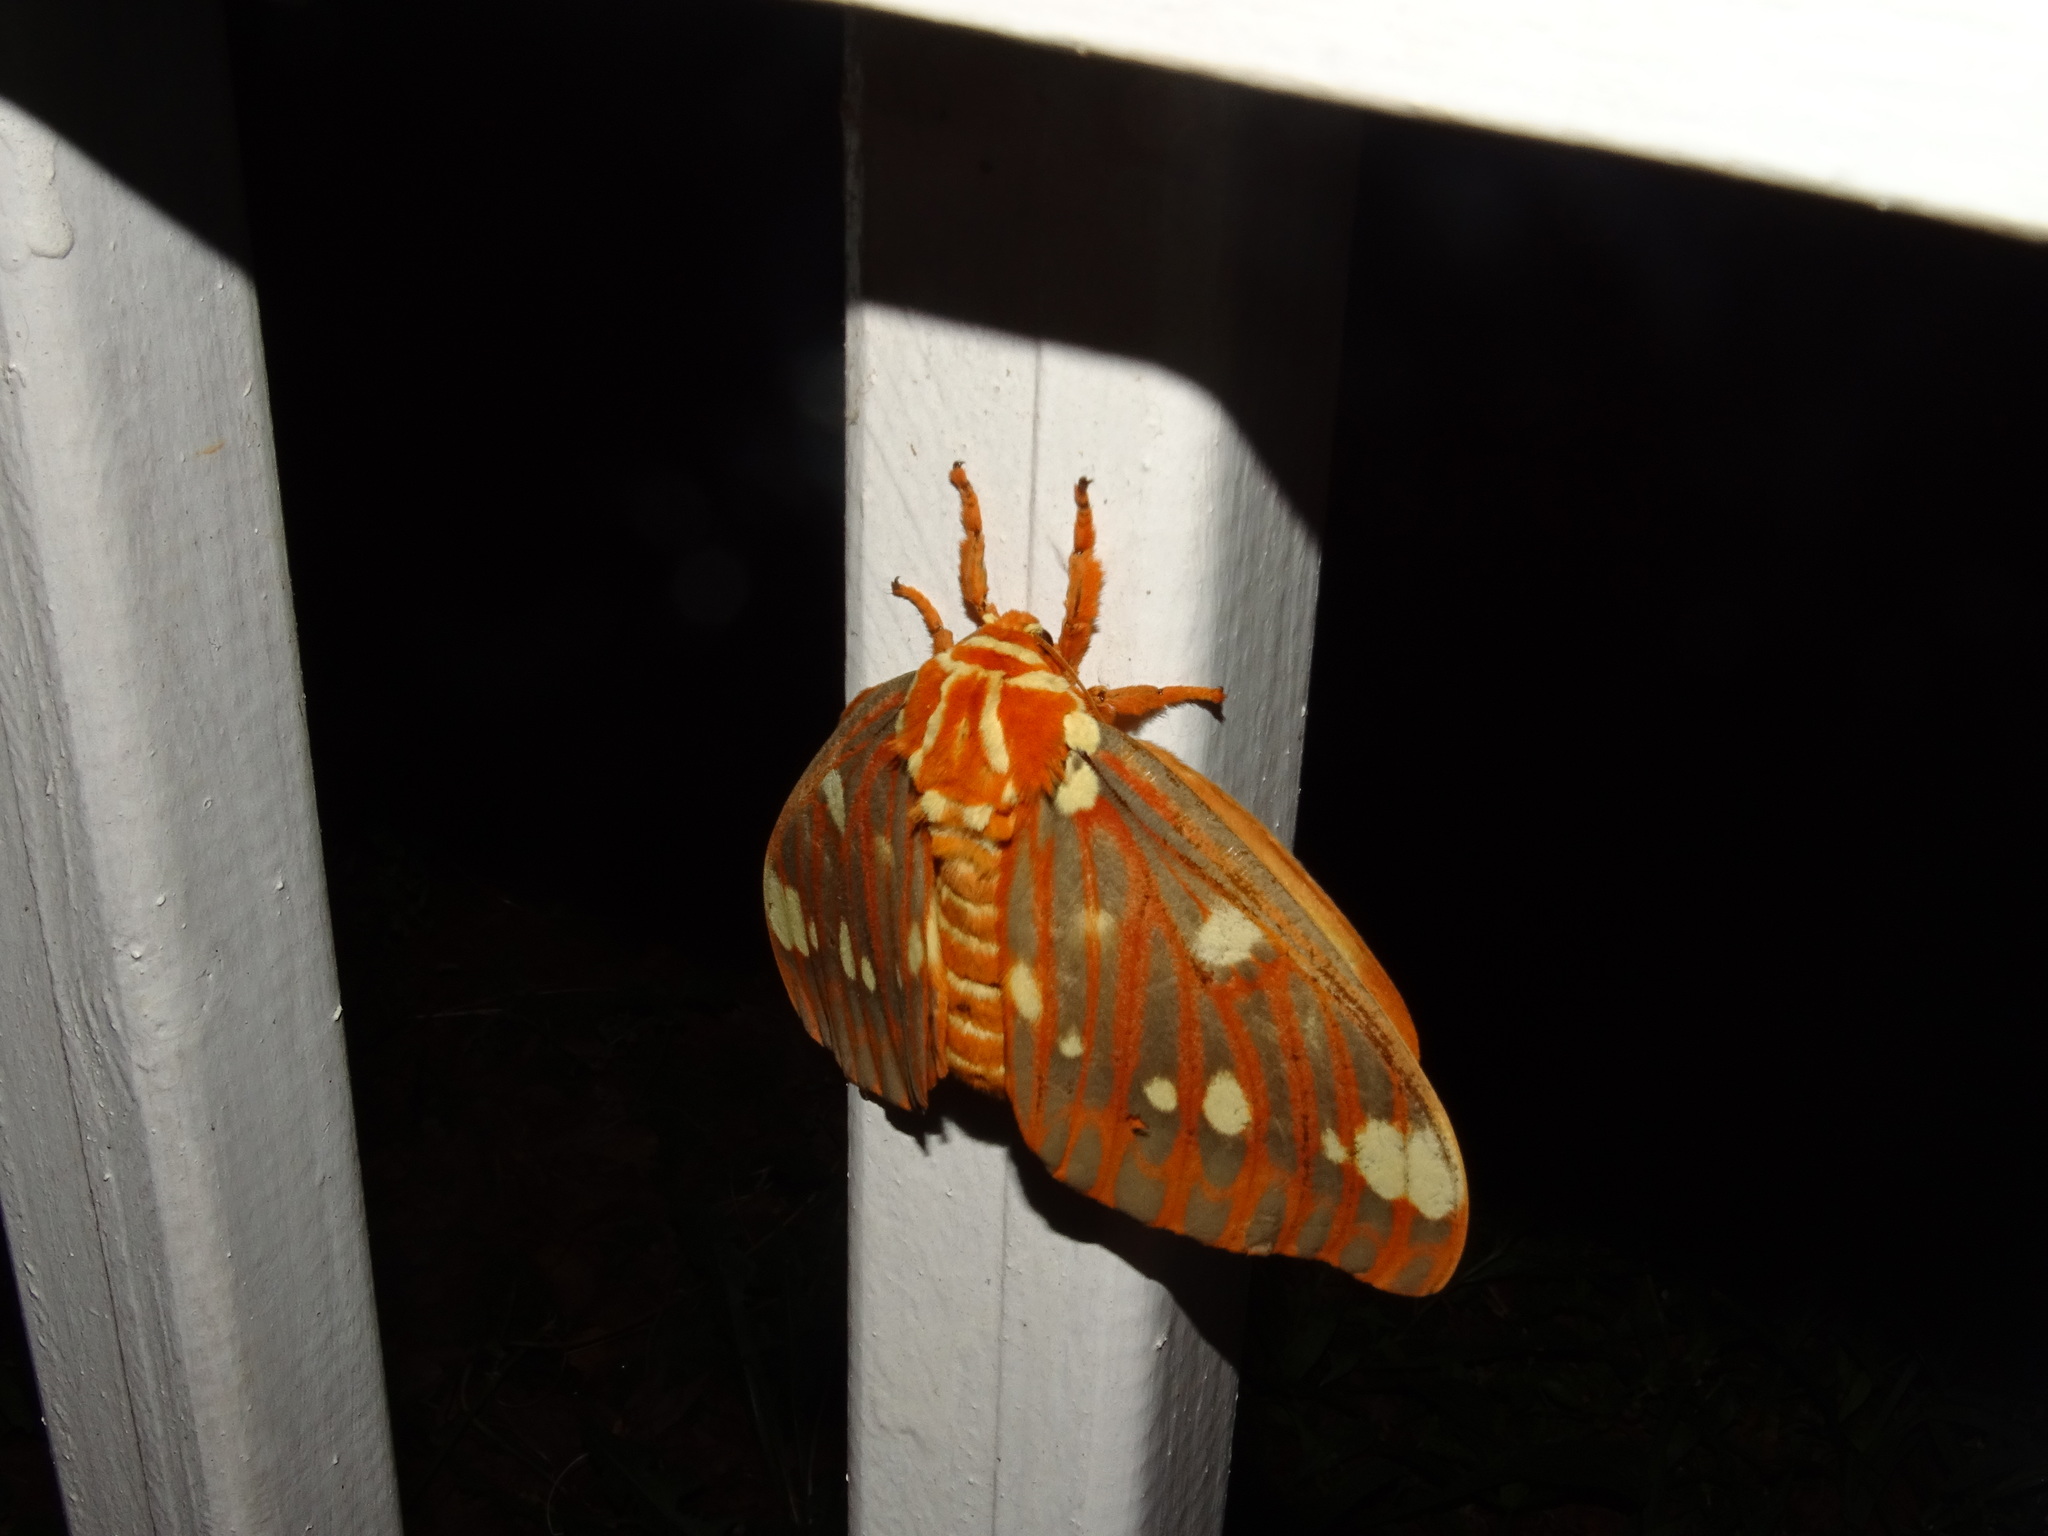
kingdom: Animalia
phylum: Arthropoda
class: Insecta
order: Lepidoptera
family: Saturniidae
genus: Citheronia
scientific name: Citheronia regalis
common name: Hickory horned devil
